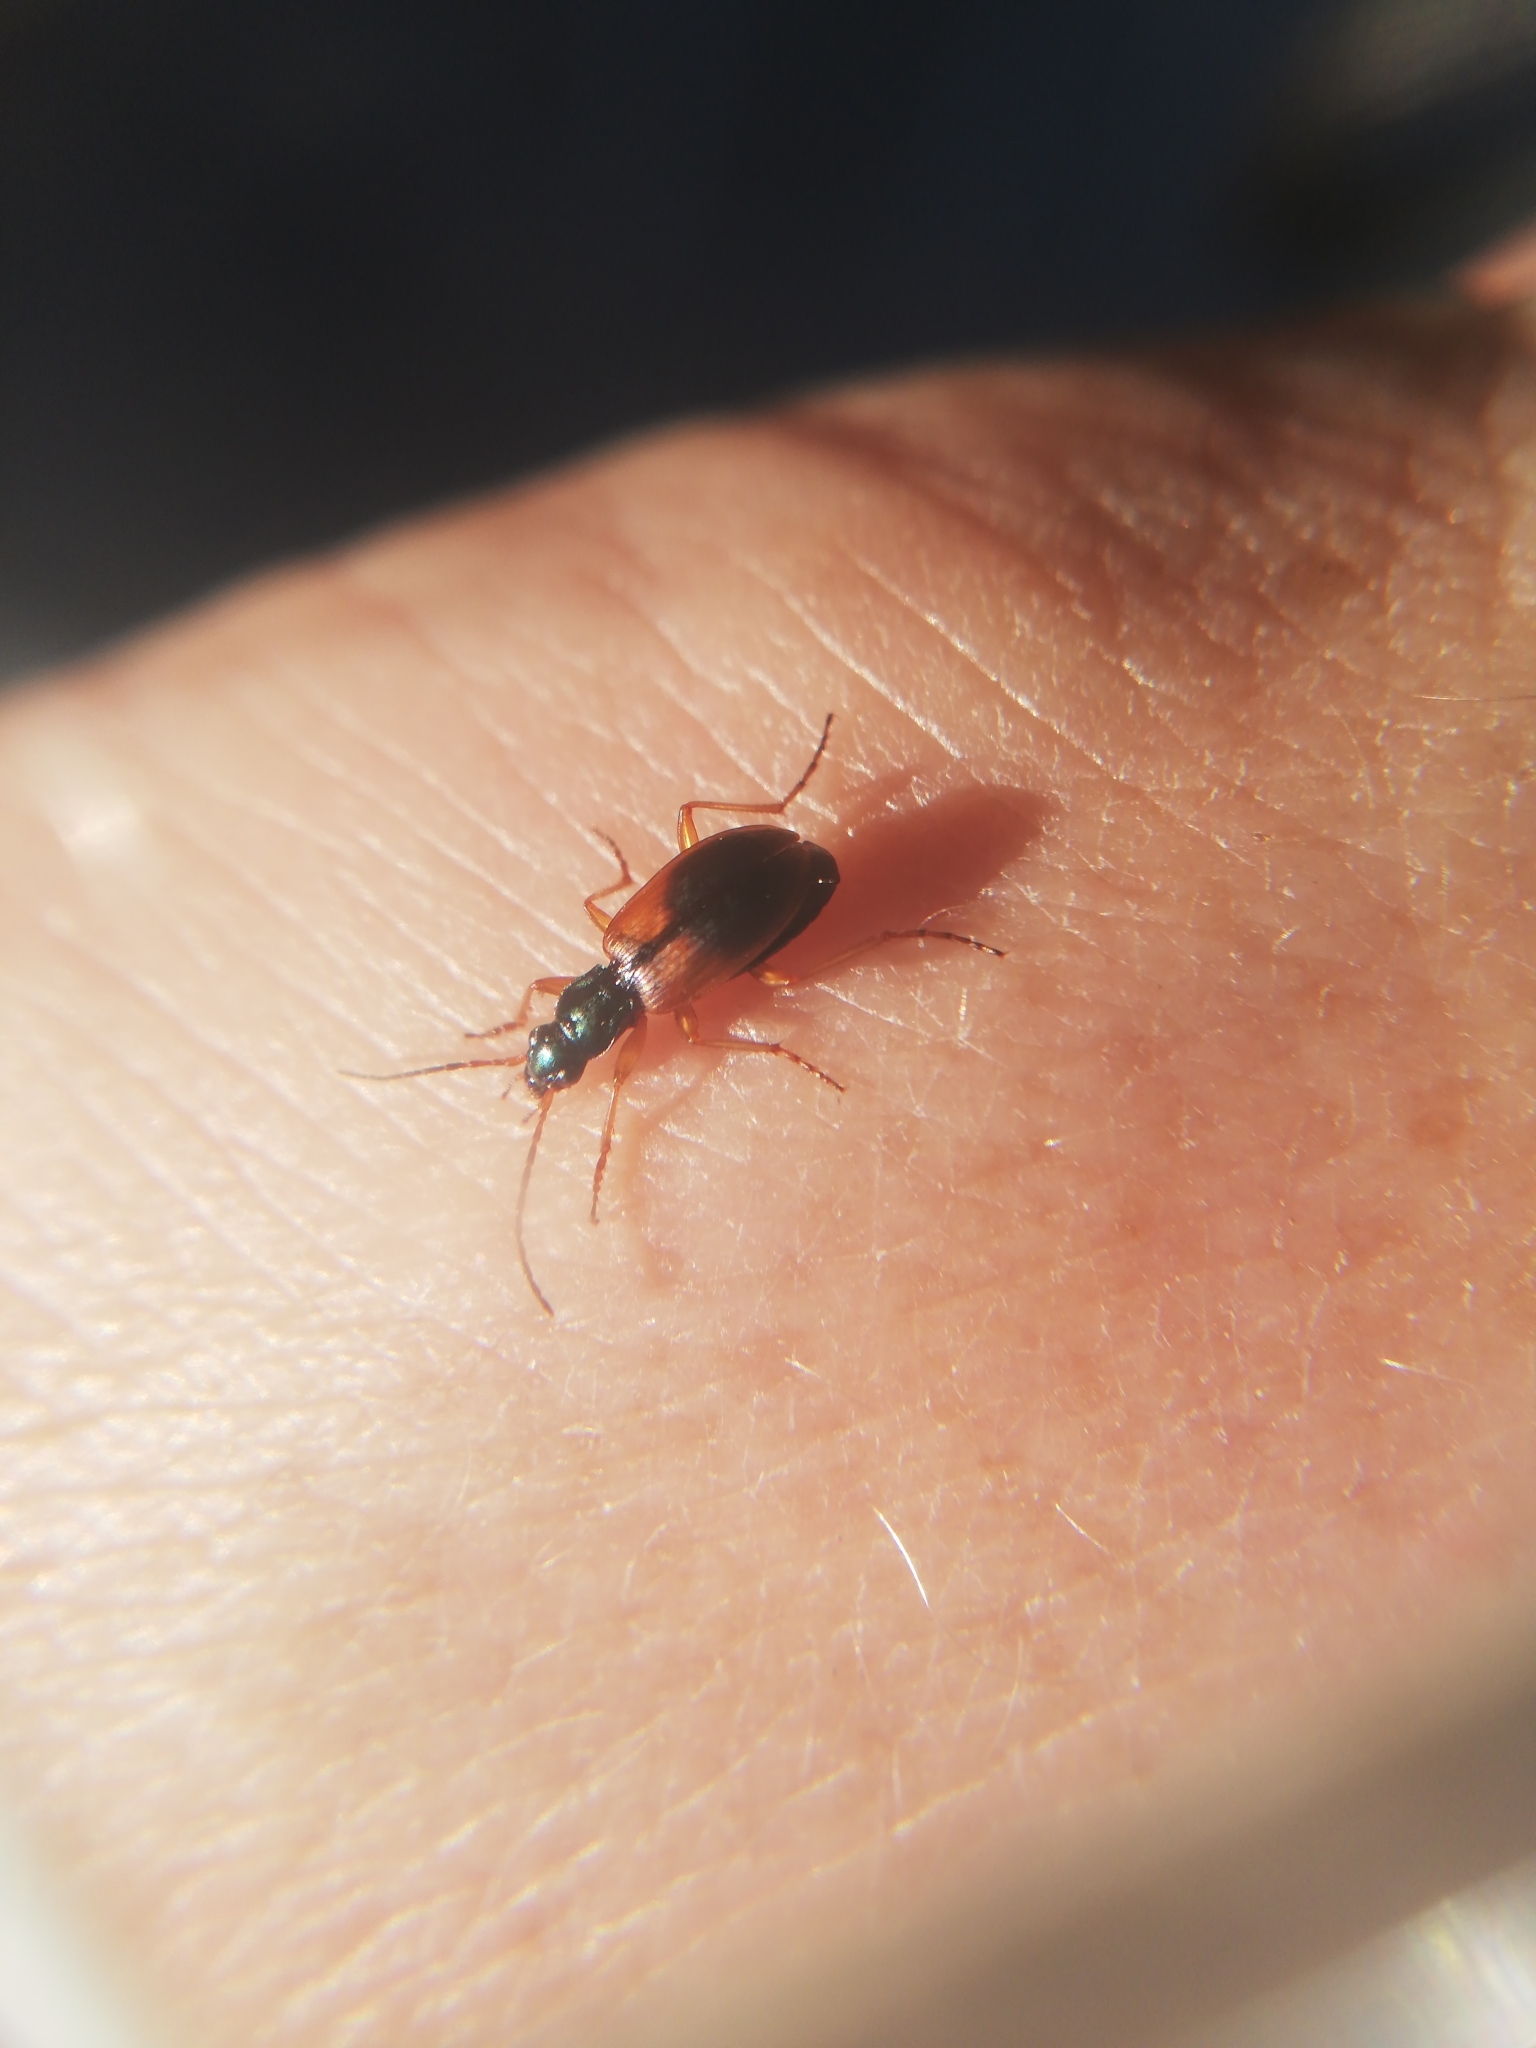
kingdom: Animalia
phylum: Arthropoda
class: Insecta
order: Coleoptera
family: Carabidae
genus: Anchomenus
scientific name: Anchomenus dorsalis
